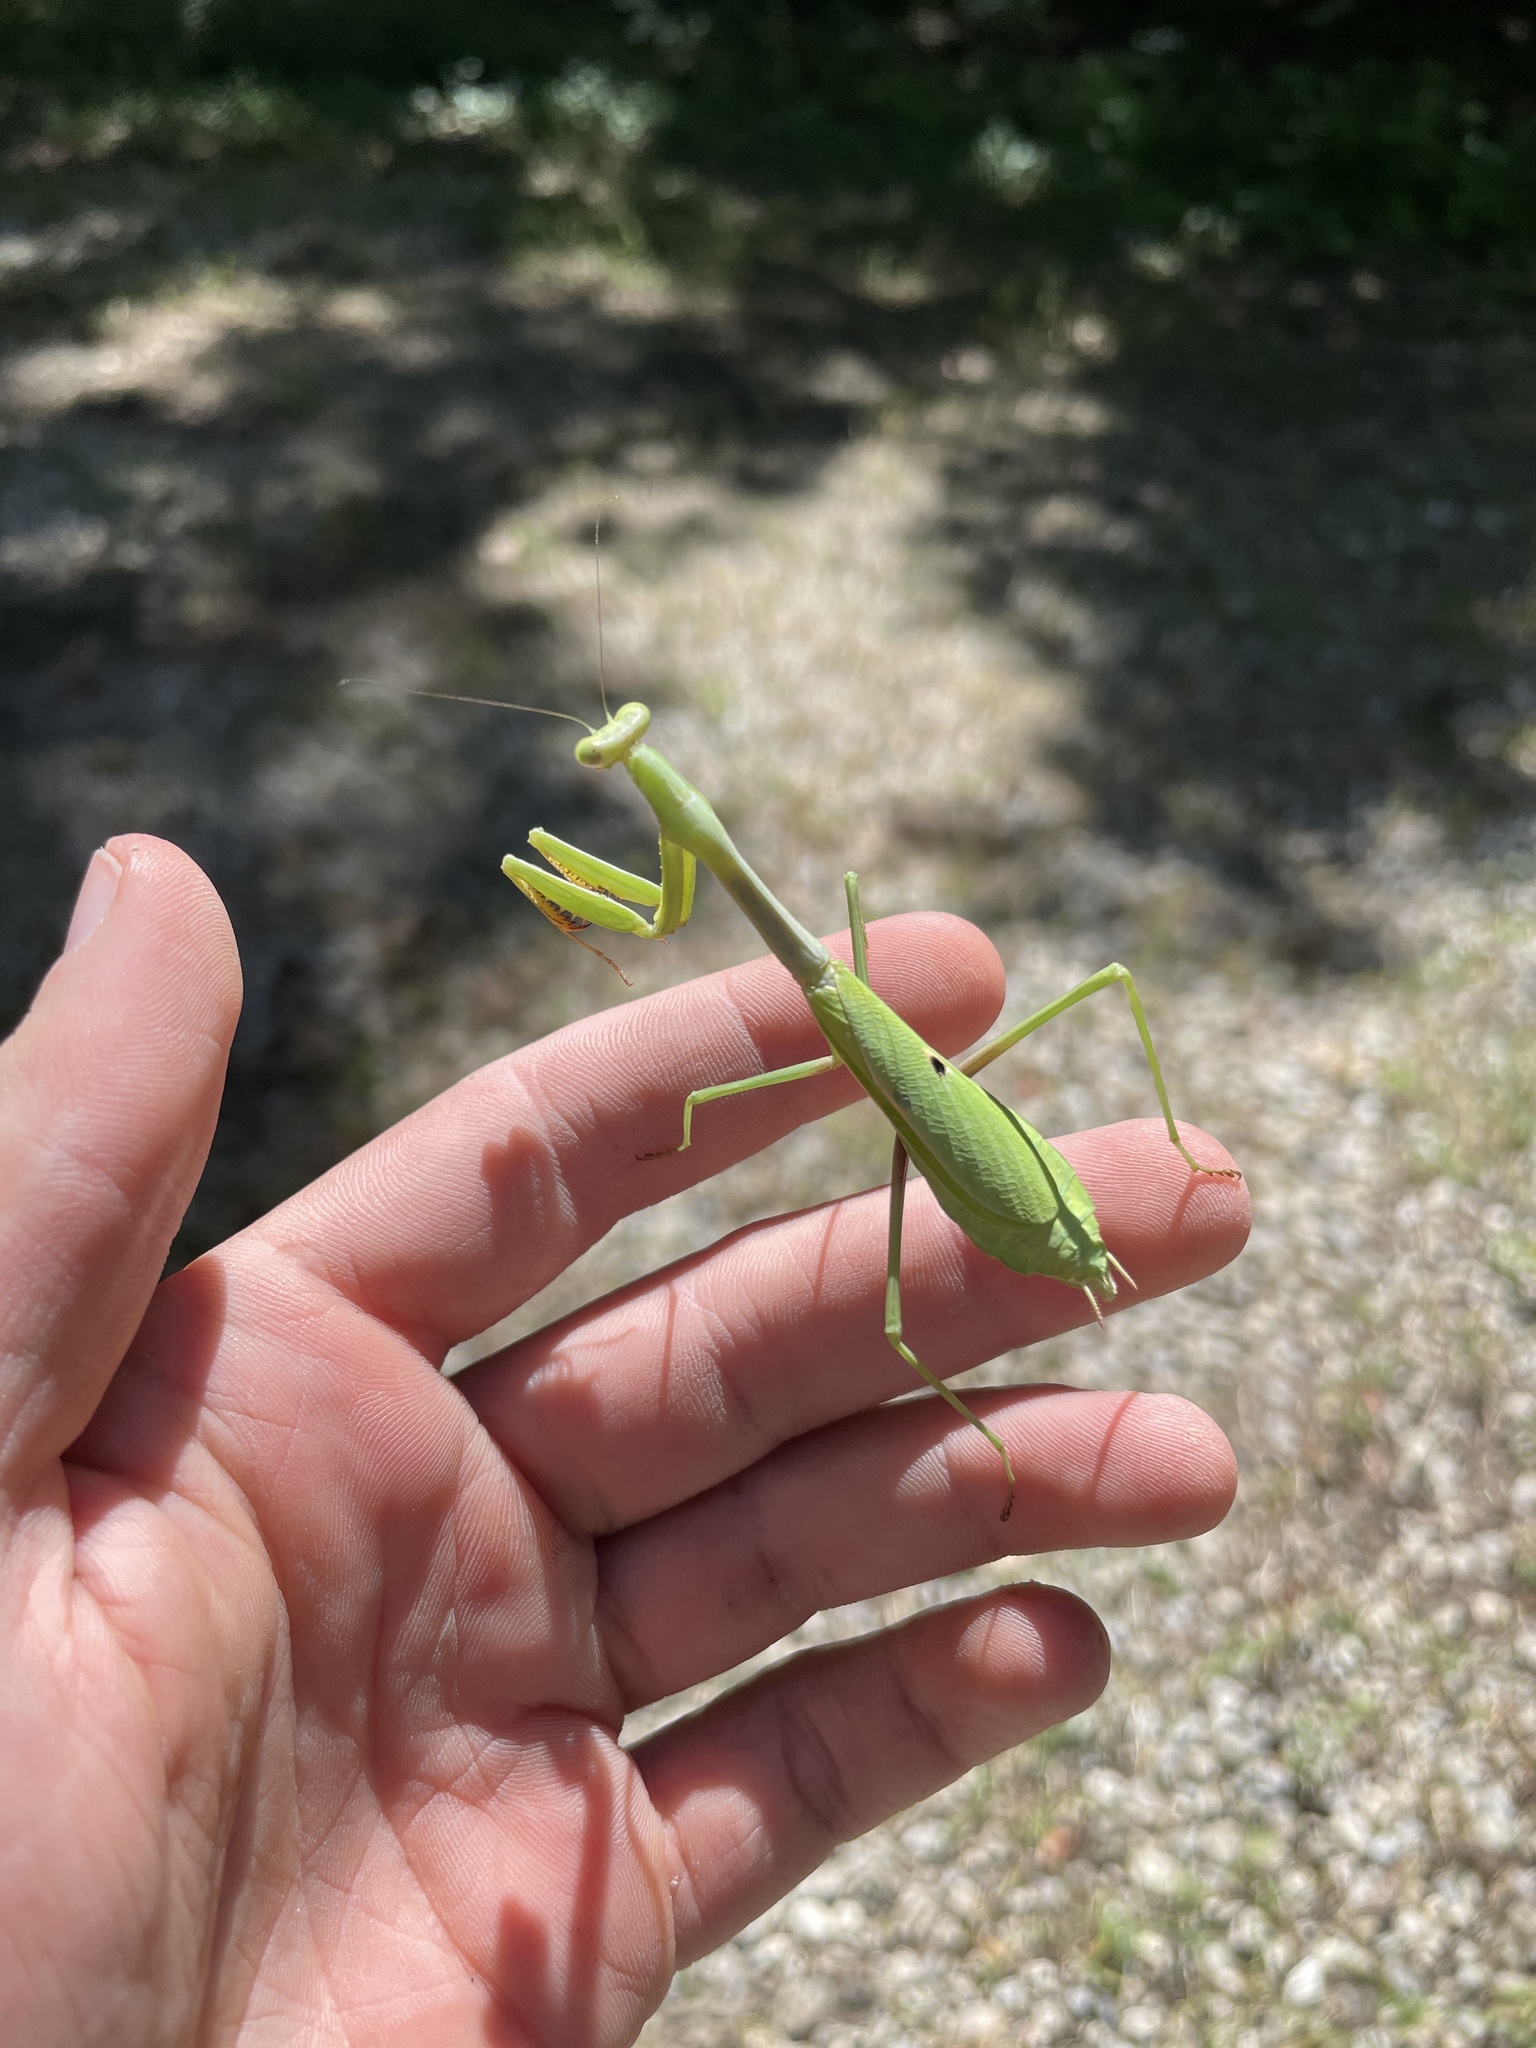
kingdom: Animalia
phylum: Arthropoda
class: Insecta
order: Mantodea
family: Mantidae
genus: Stagmomantis
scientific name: Stagmomantis carolina
